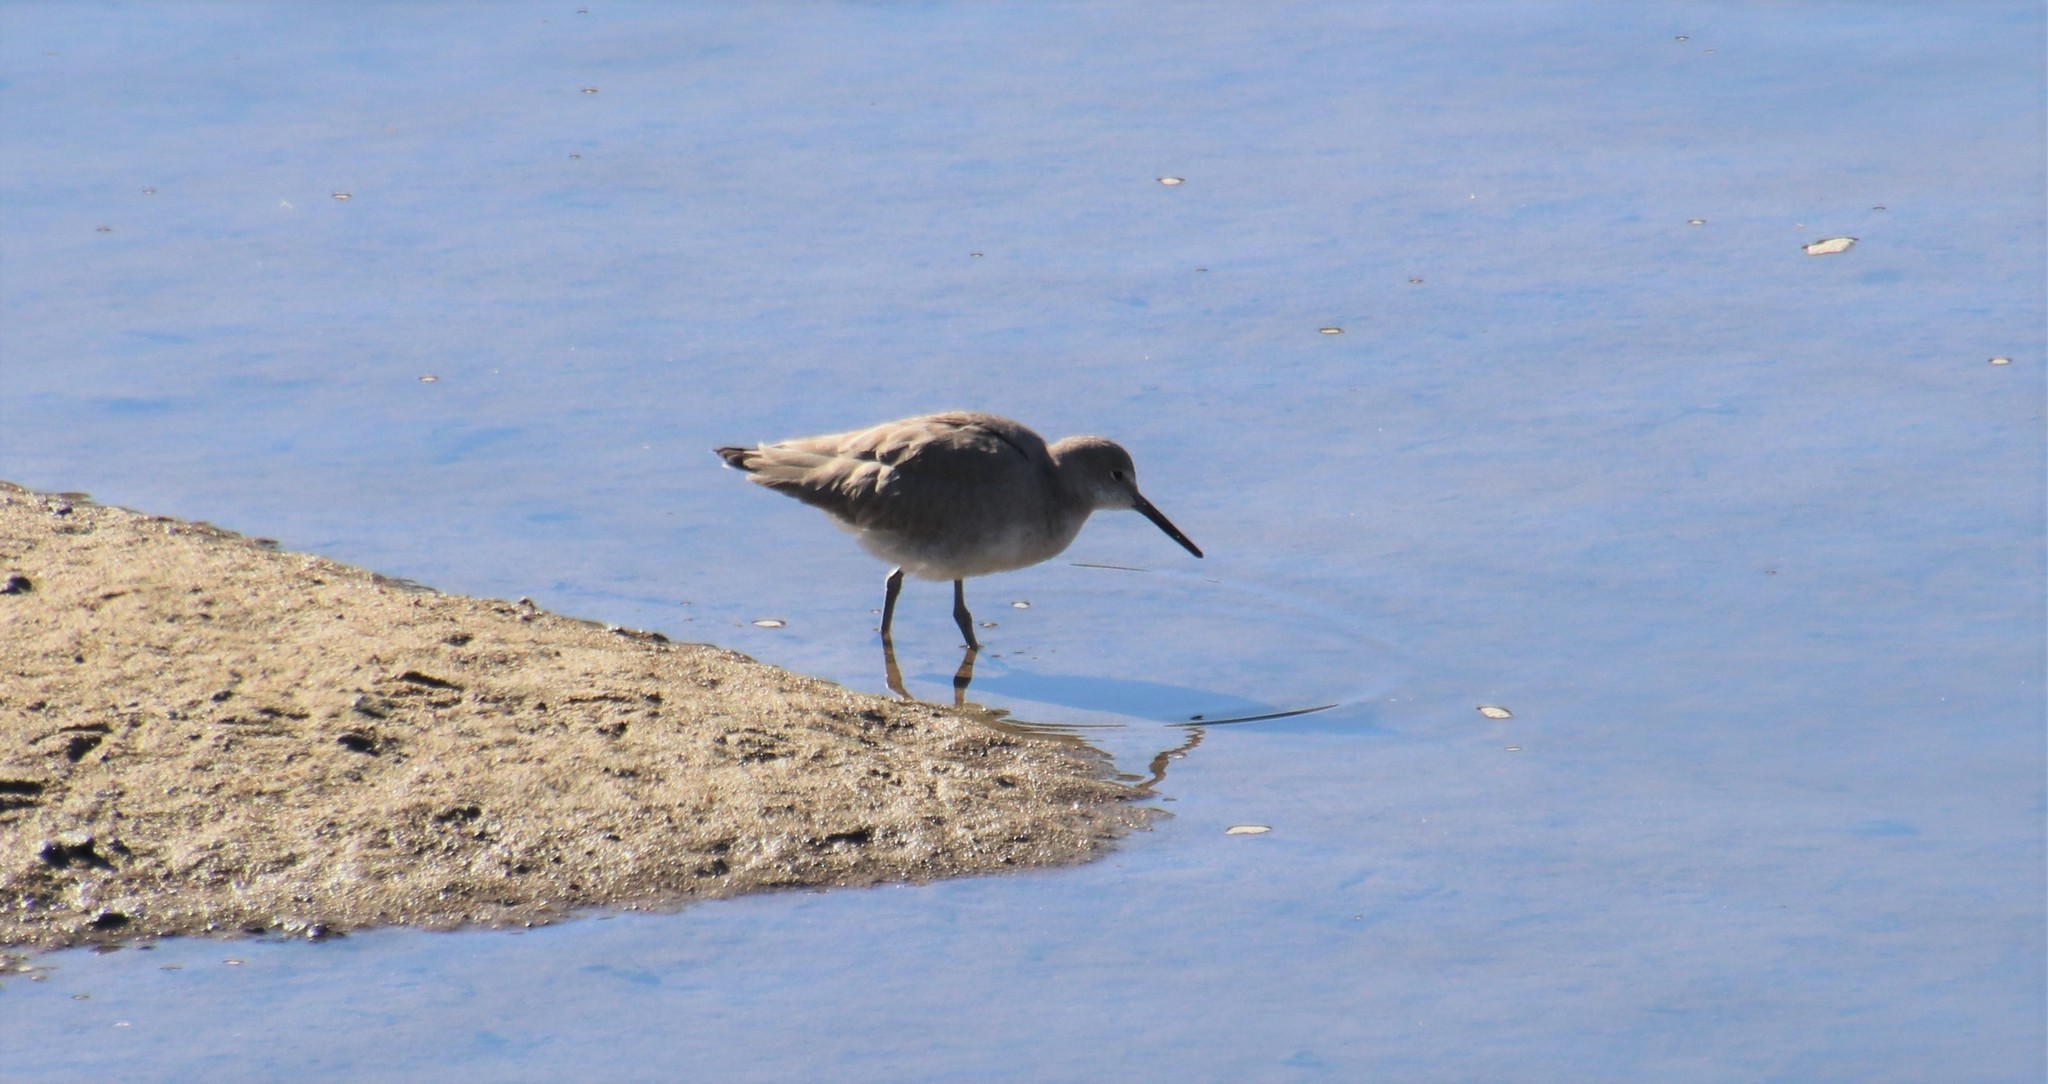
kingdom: Animalia
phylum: Chordata
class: Aves
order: Charadriiformes
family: Scolopacidae
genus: Tringa
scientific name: Tringa semipalmata
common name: Willet
